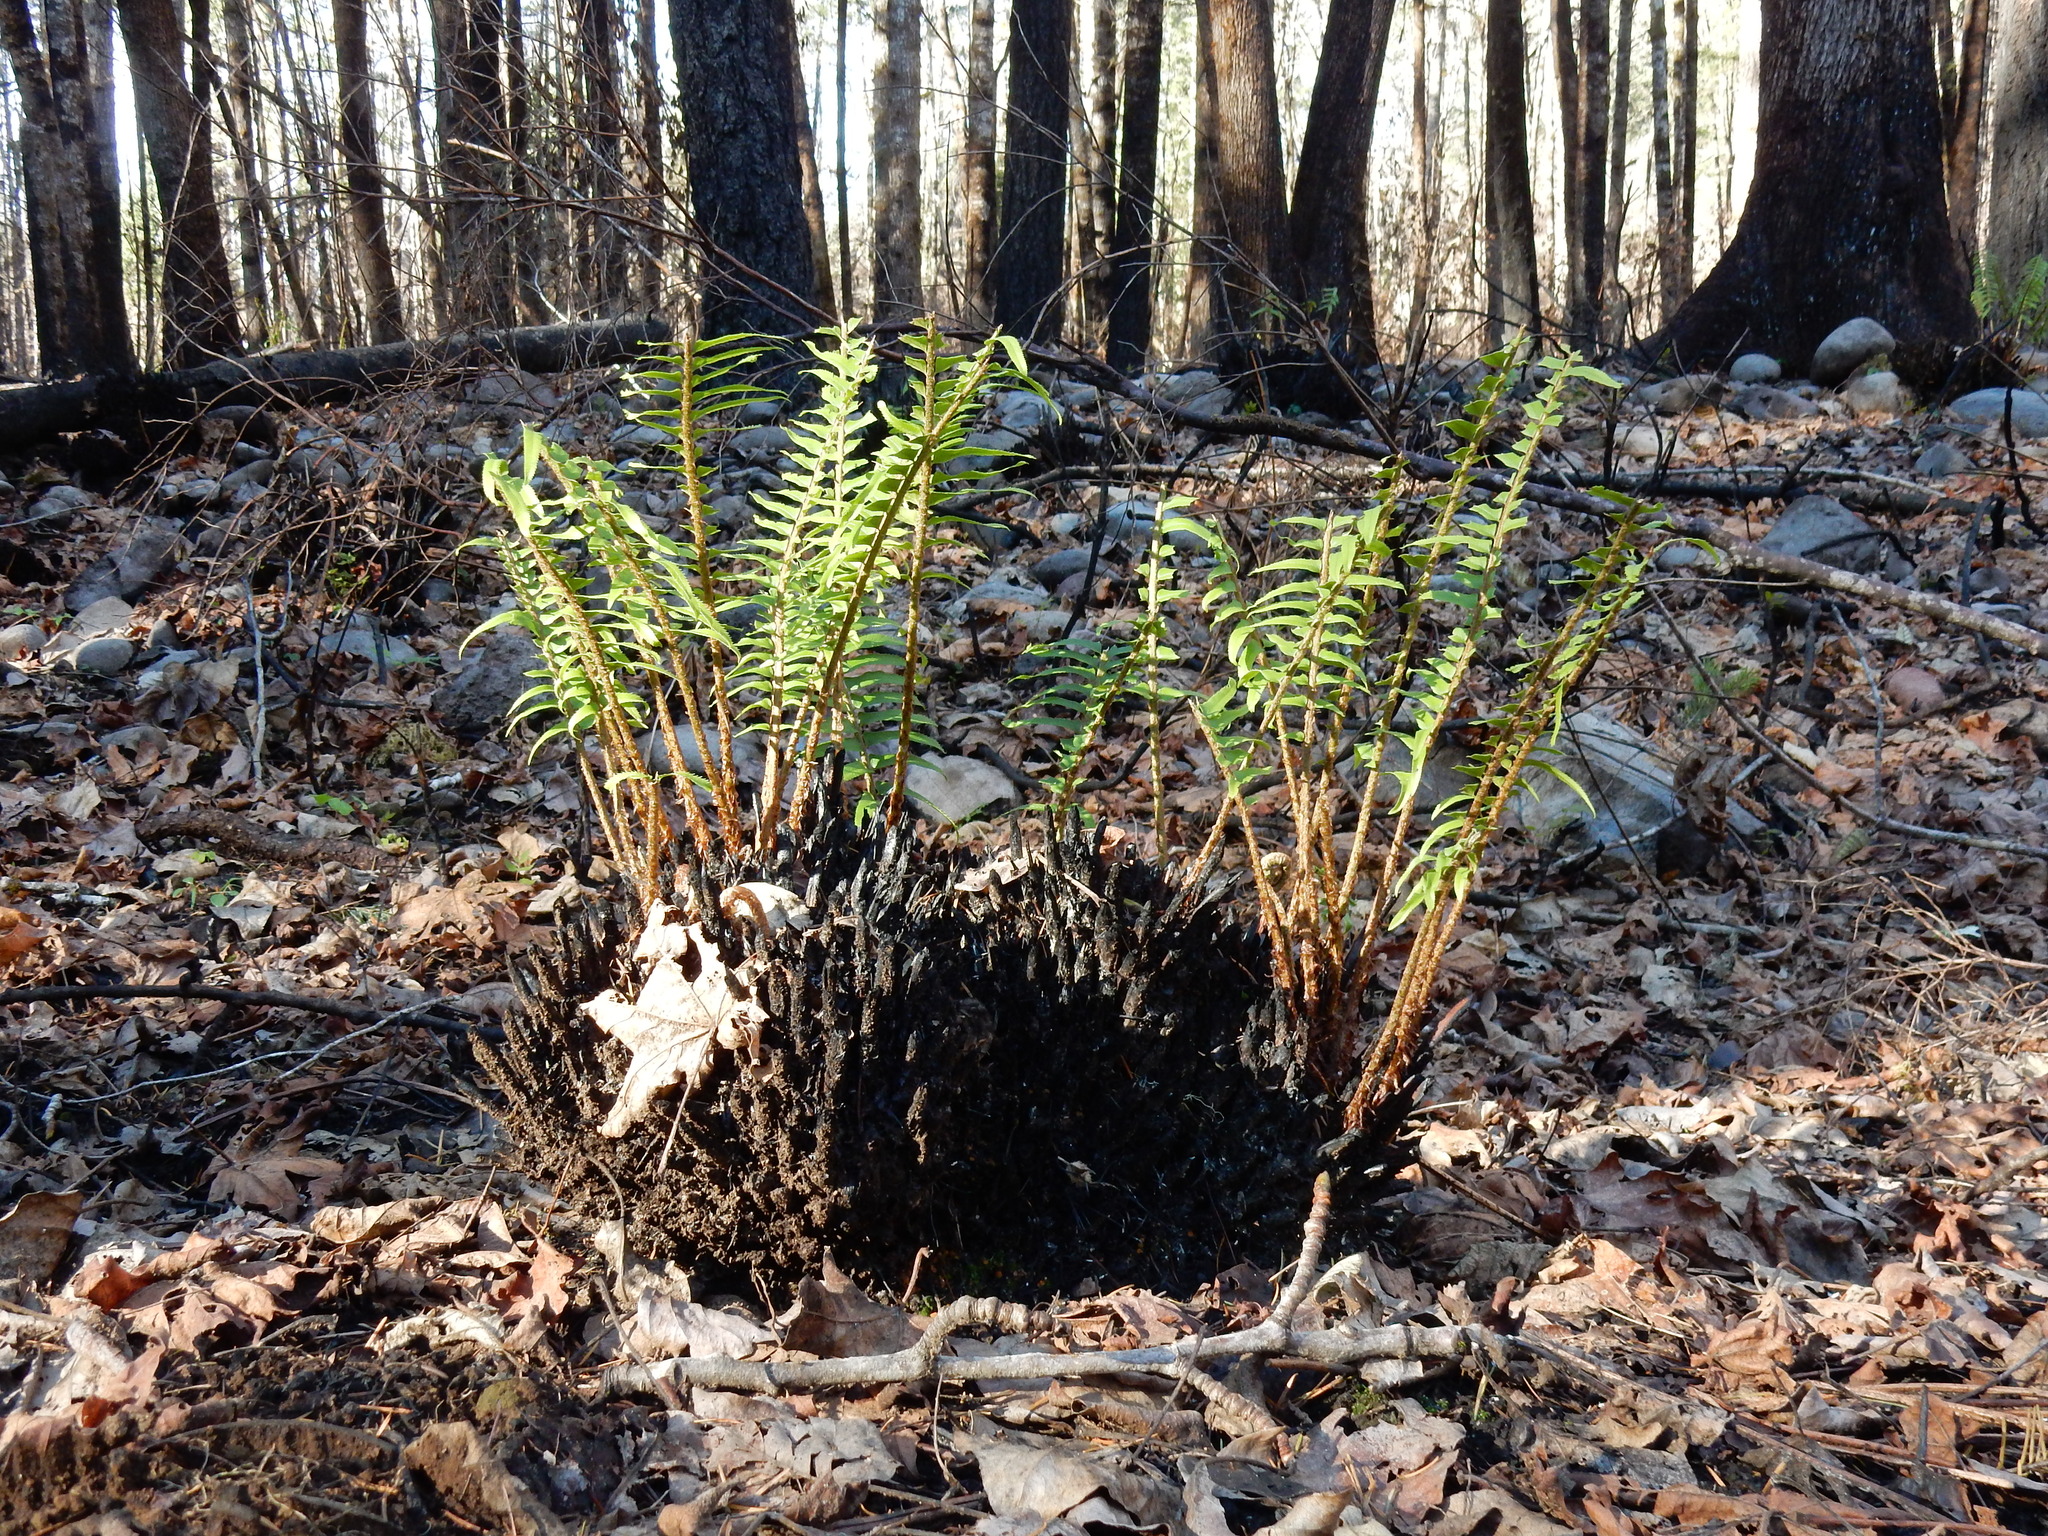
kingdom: Plantae
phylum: Tracheophyta
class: Polypodiopsida
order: Polypodiales
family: Dryopteridaceae
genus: Polystichum
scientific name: Polystichum munitum
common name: Western sword-fern
